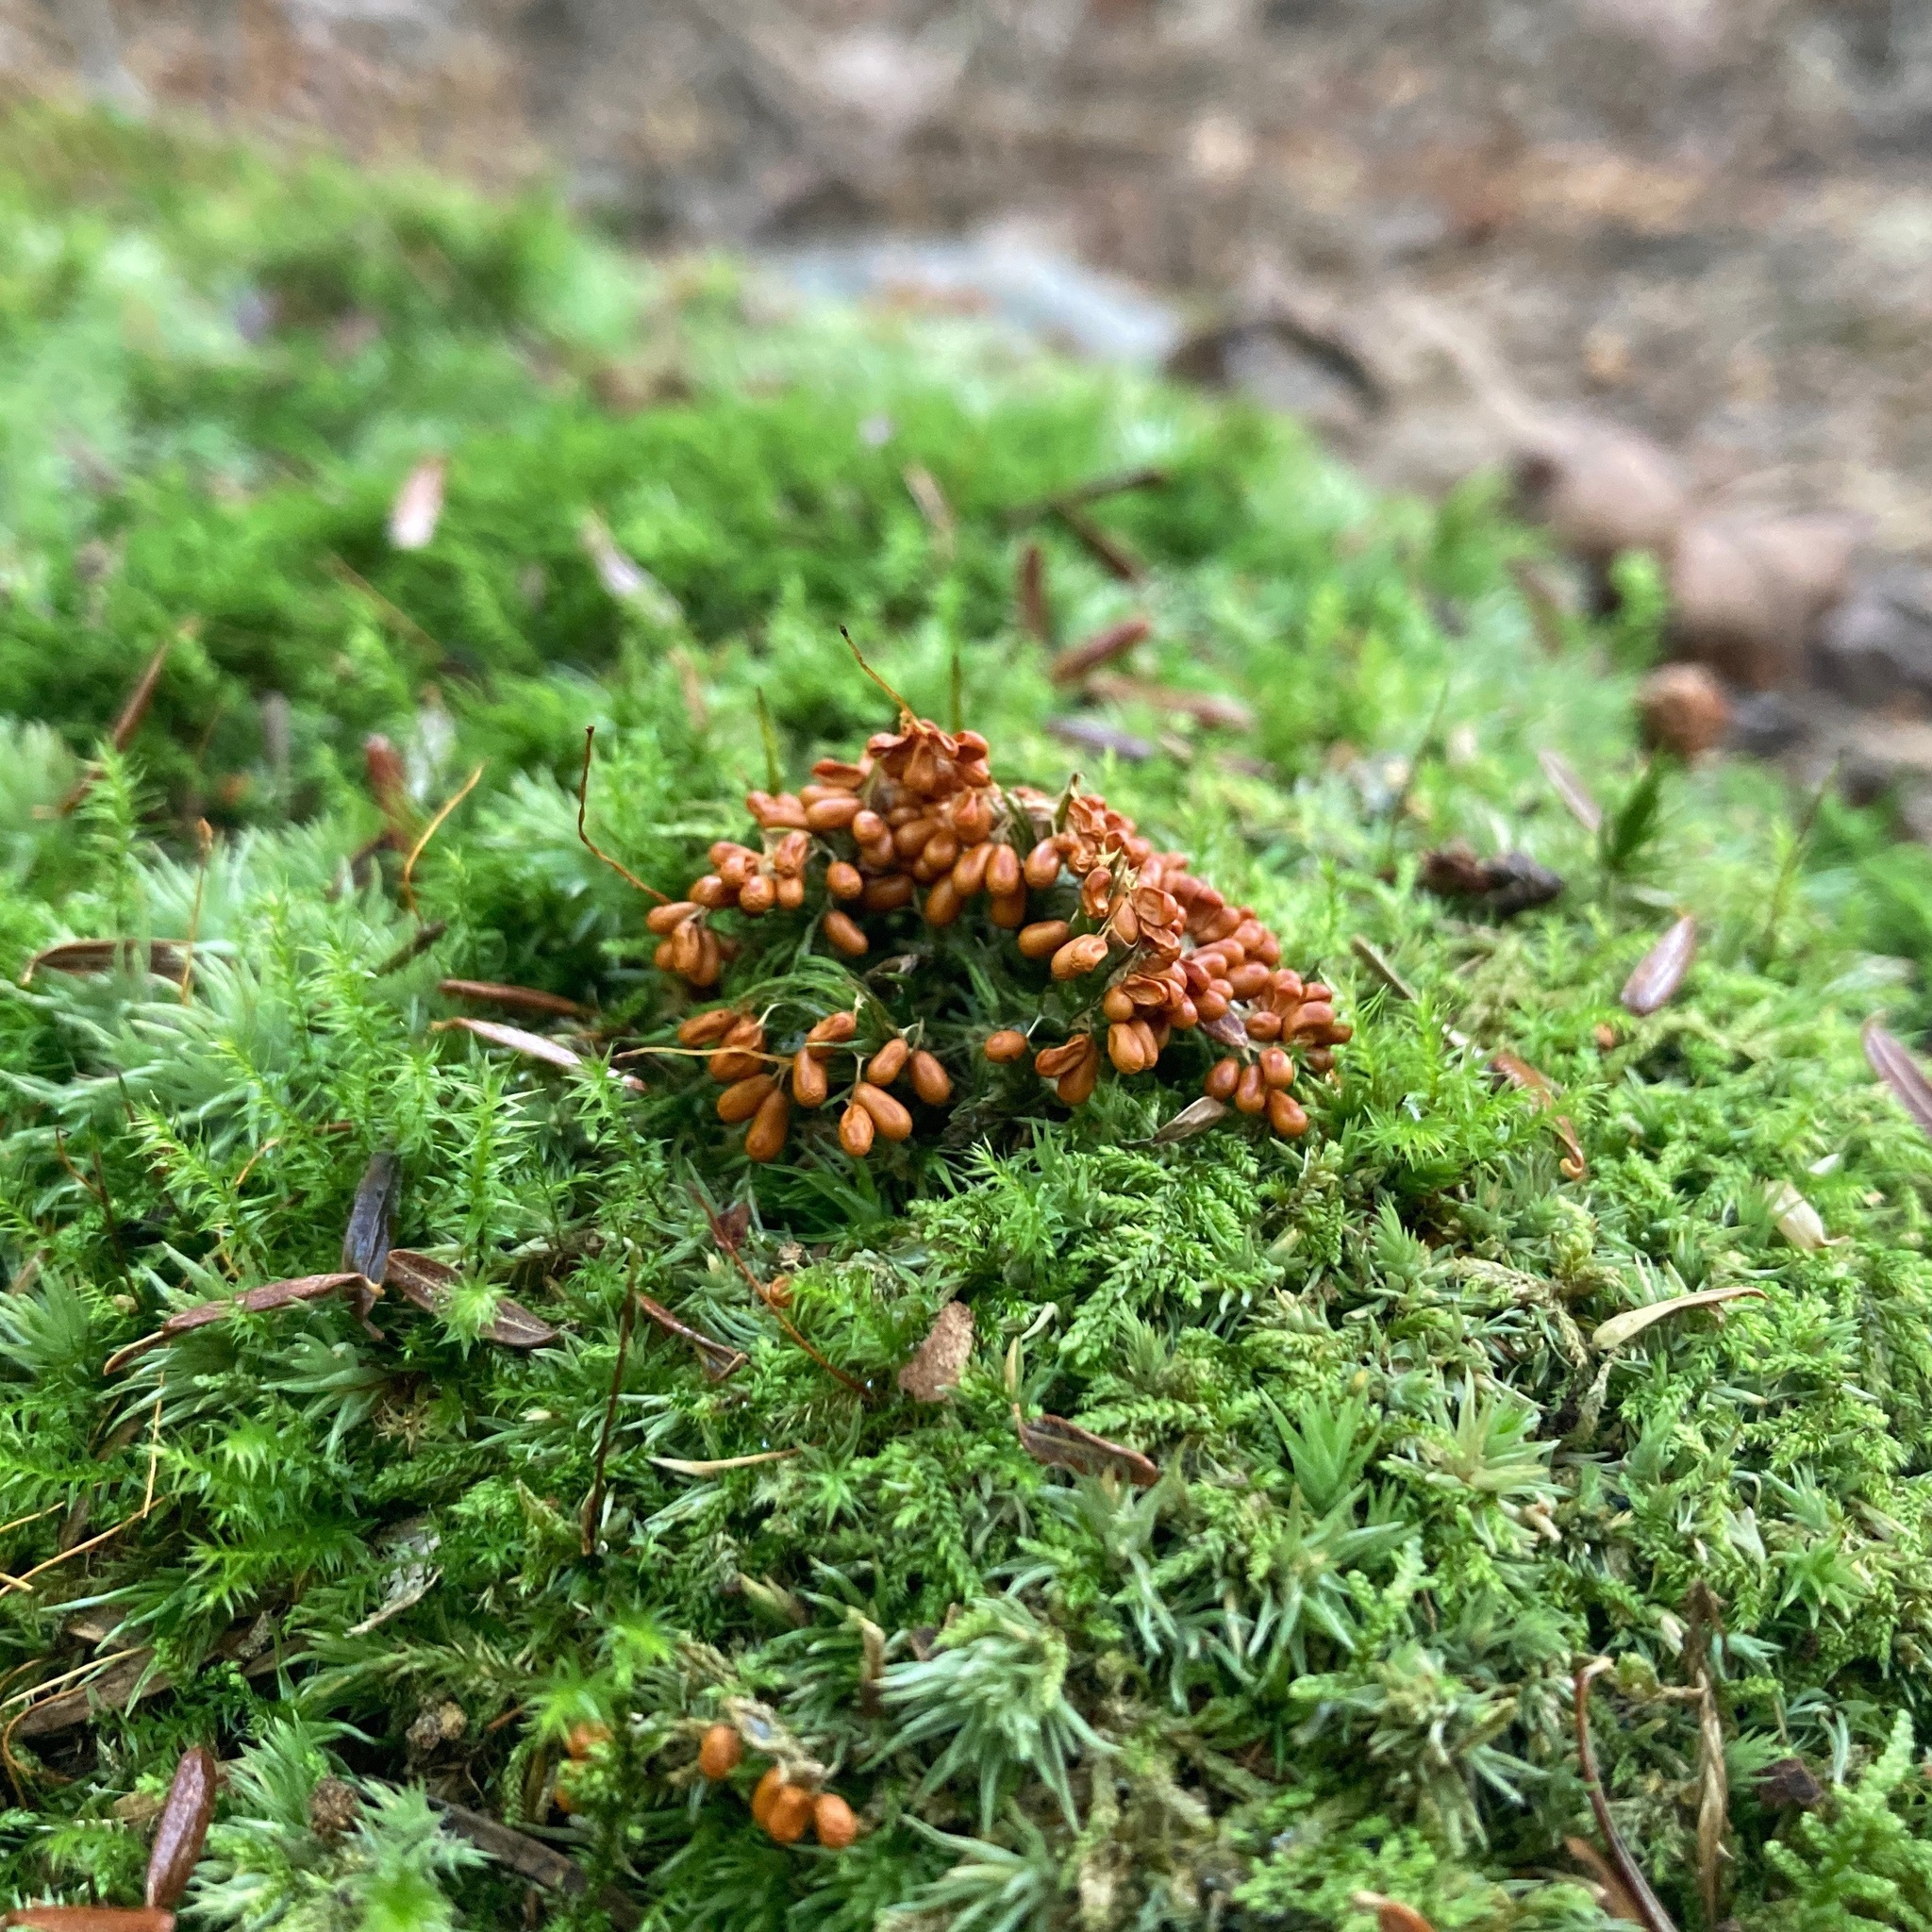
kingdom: Protozoa
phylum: Mycetozoa
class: Myxomycetes
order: Physarales
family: Physaraceae
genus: Leocarpus
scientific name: Leocarpus fragilis
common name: Insect-egg slime
